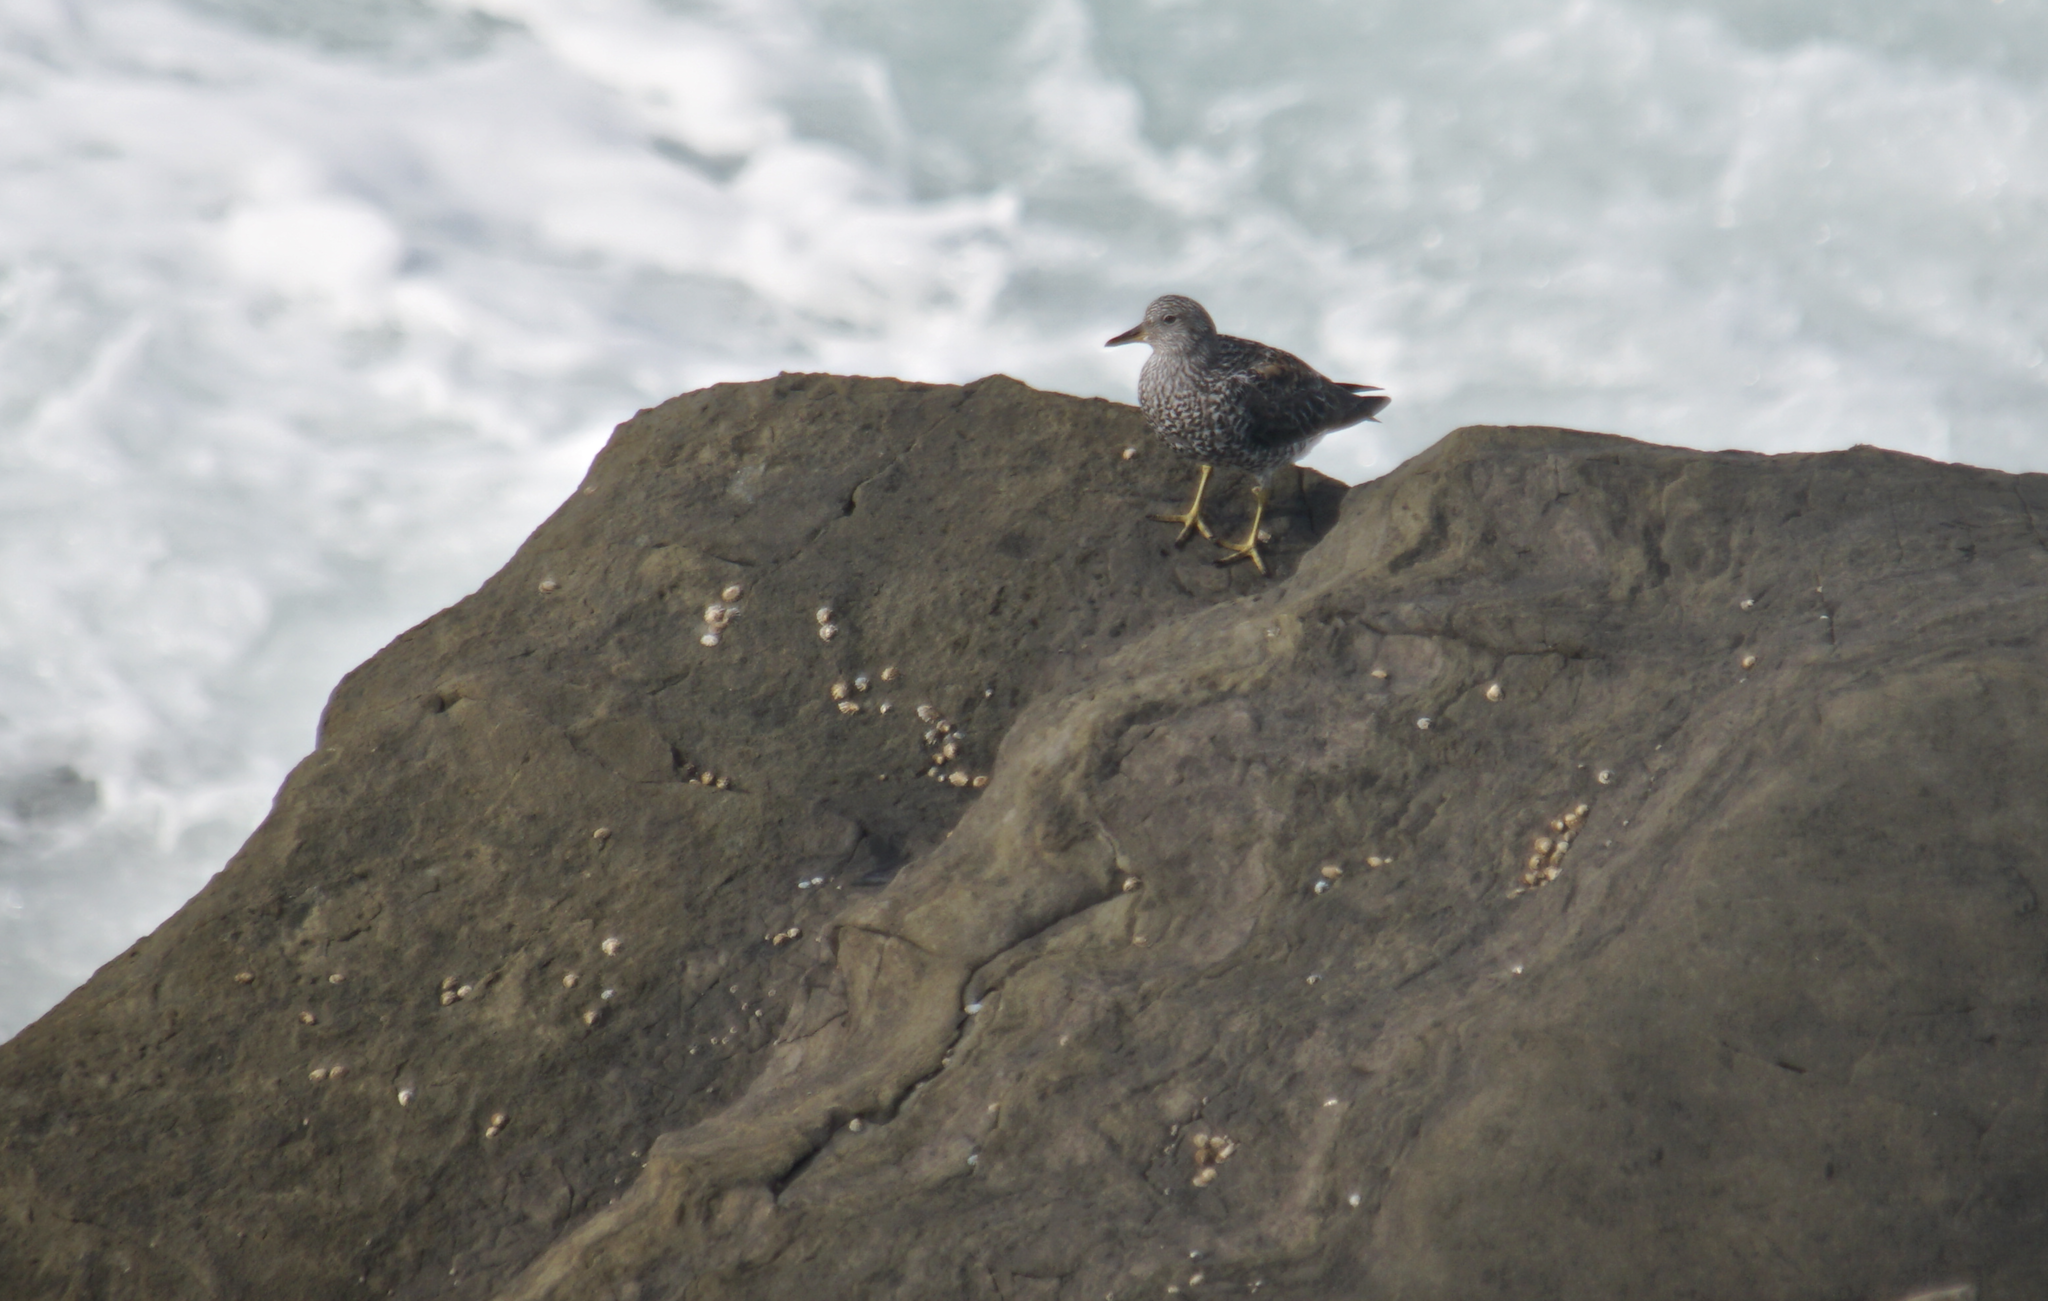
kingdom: Animalia
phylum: Chordata
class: Aves
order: Charadriiformes
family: Scolopacidae
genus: Calidris
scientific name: Calidris virgata
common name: Surfbird
